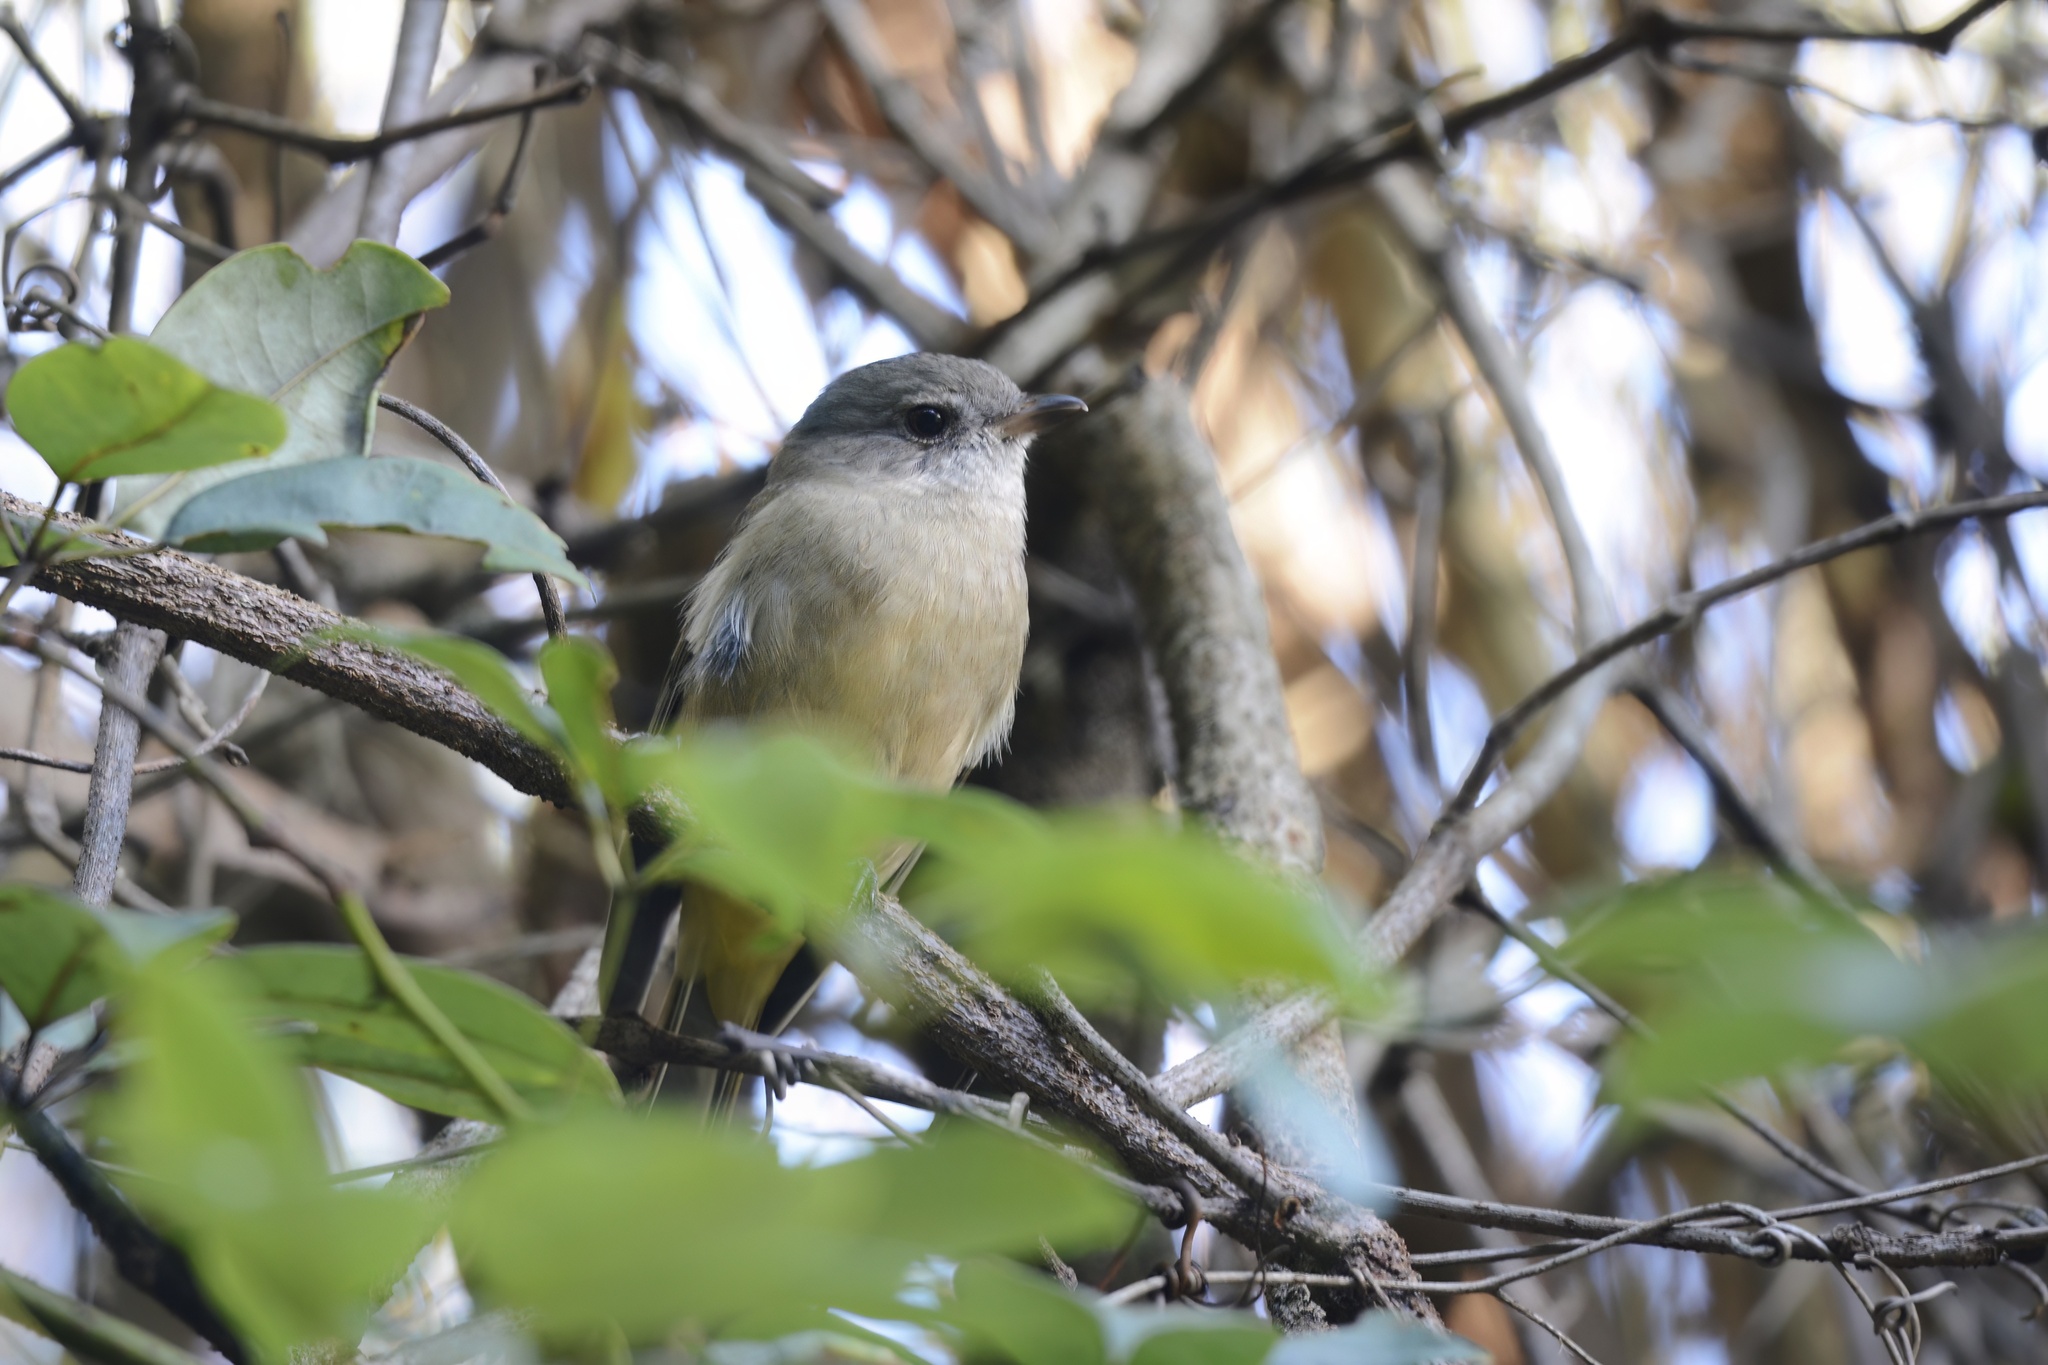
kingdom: Animalia
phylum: Chordata
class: Aves
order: Passeriformes
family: Pachycephalidae
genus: Pachycephala
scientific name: Pachycephala pectoralis
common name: Australian golden whistler
